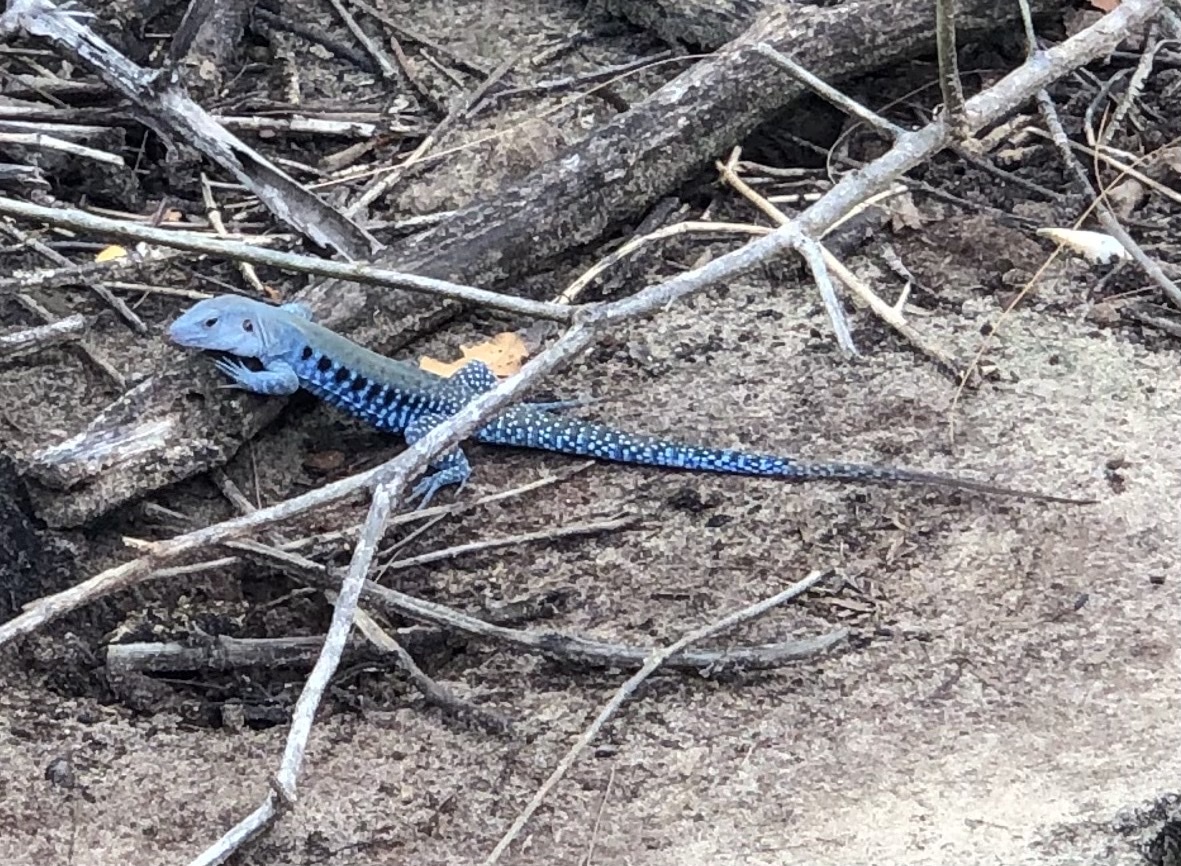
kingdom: Animalia
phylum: Chordata
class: Squamata
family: Teiidae
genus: Pholidoscelis
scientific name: Pholidoscelis exsul
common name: Common puerto rican ameiva
